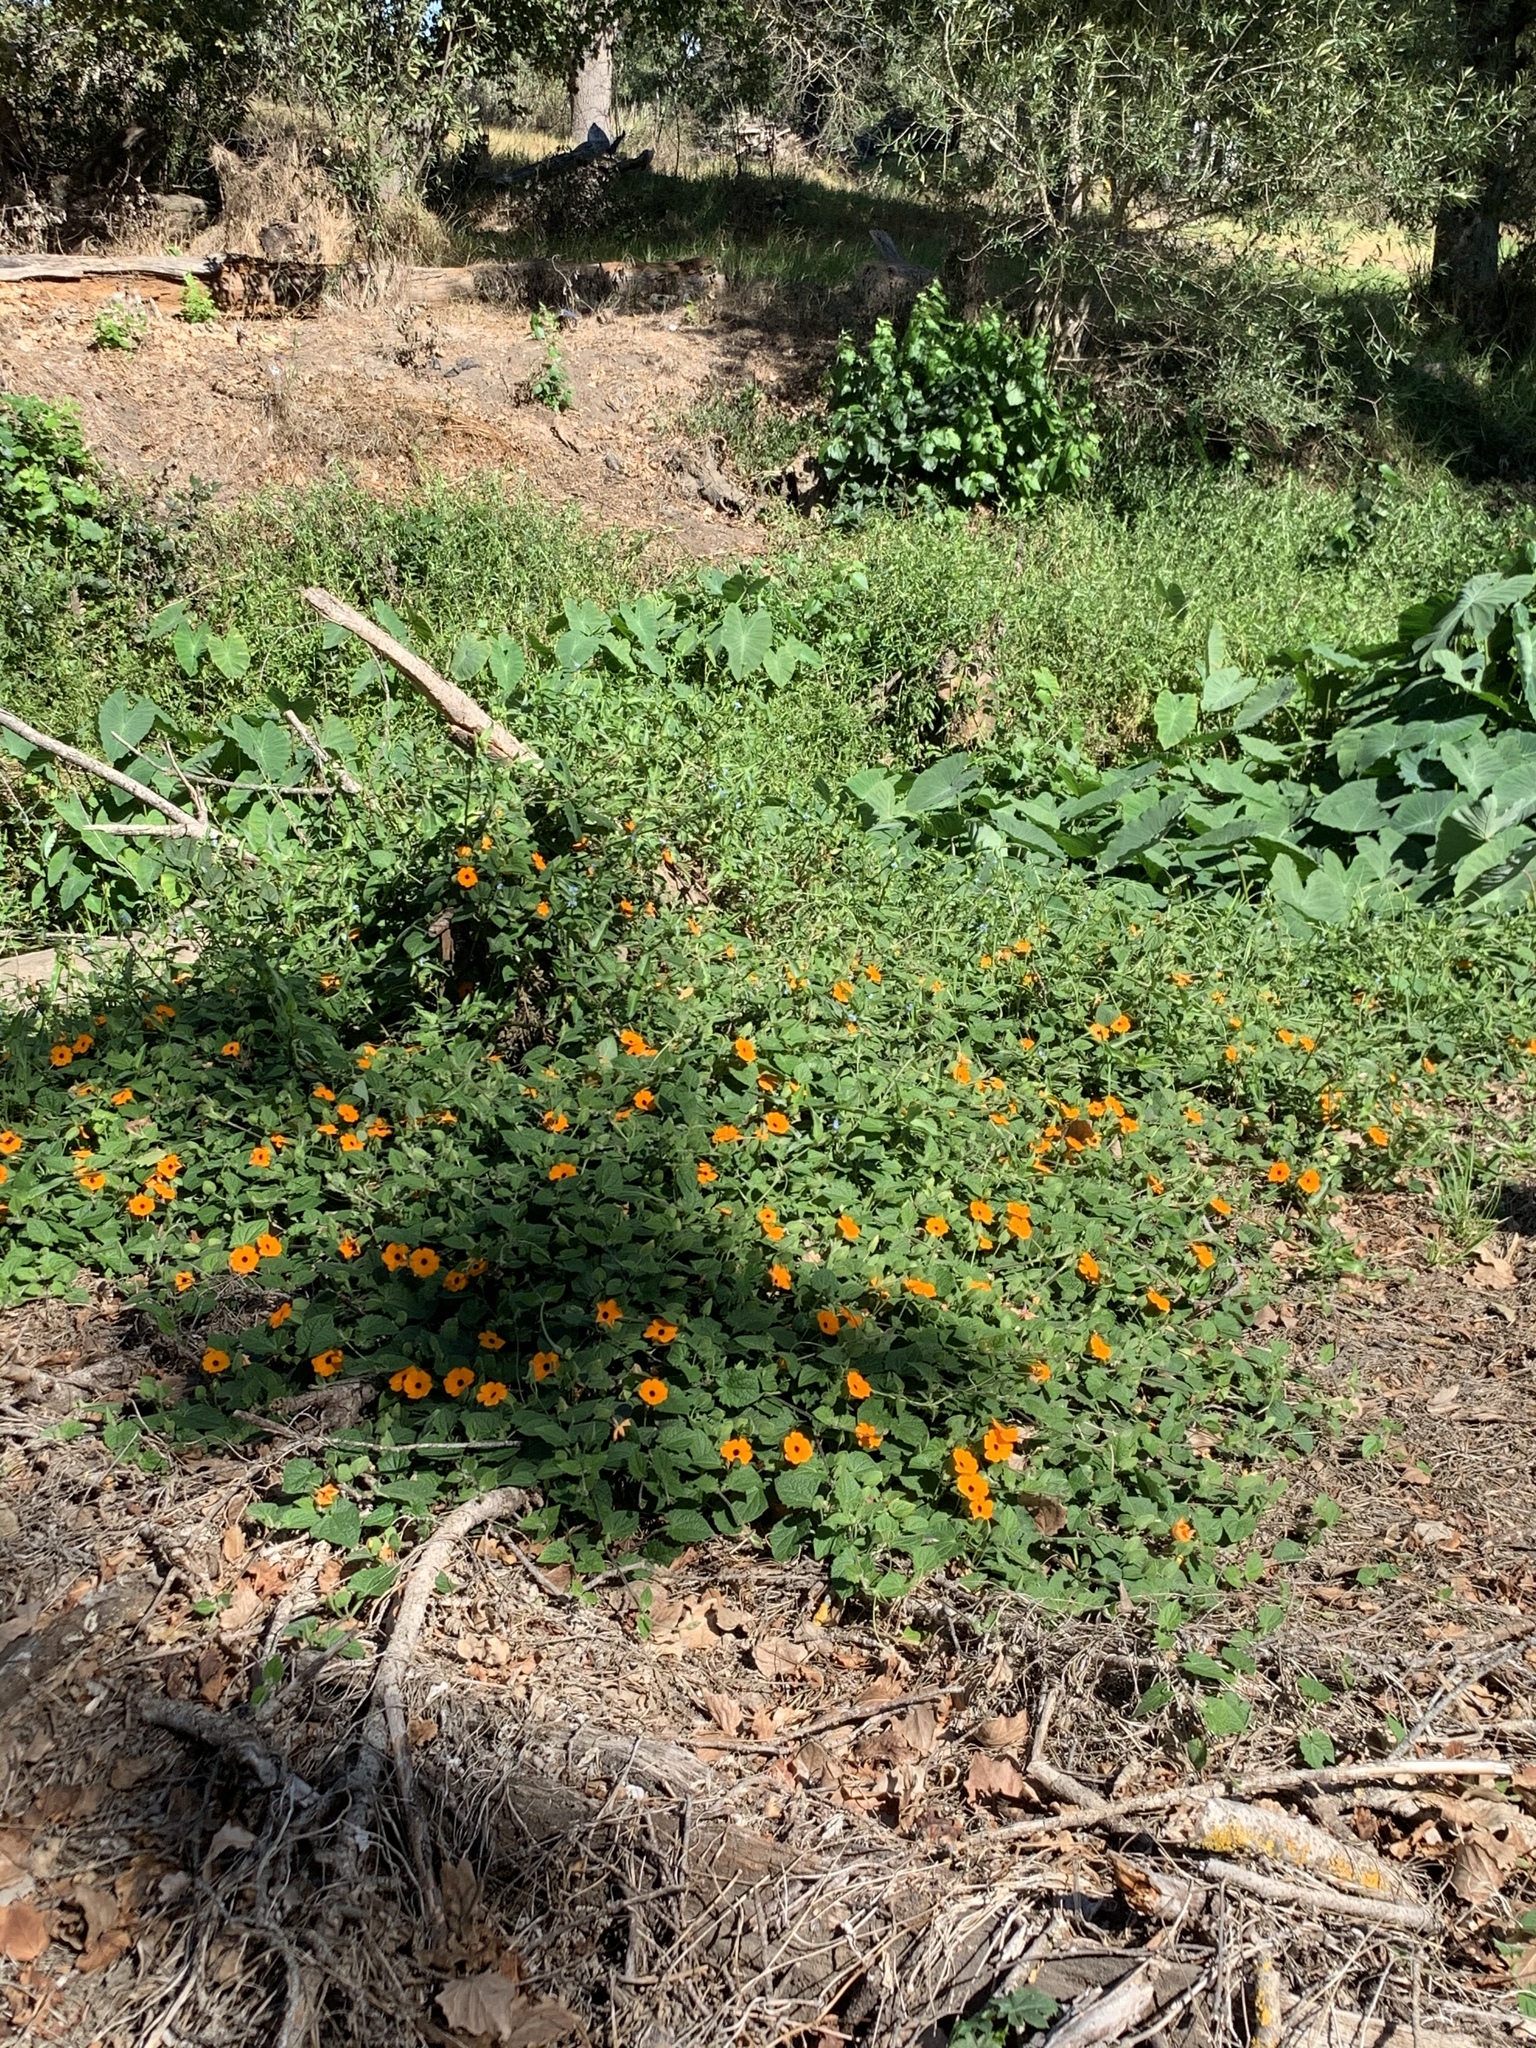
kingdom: Plantae
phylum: Tracheophyta
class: Magnoliopsida
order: Lamiales
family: Acanthaceae
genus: Thunbergia
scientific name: Thunbergia alata
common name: Blackeyed susan vine
